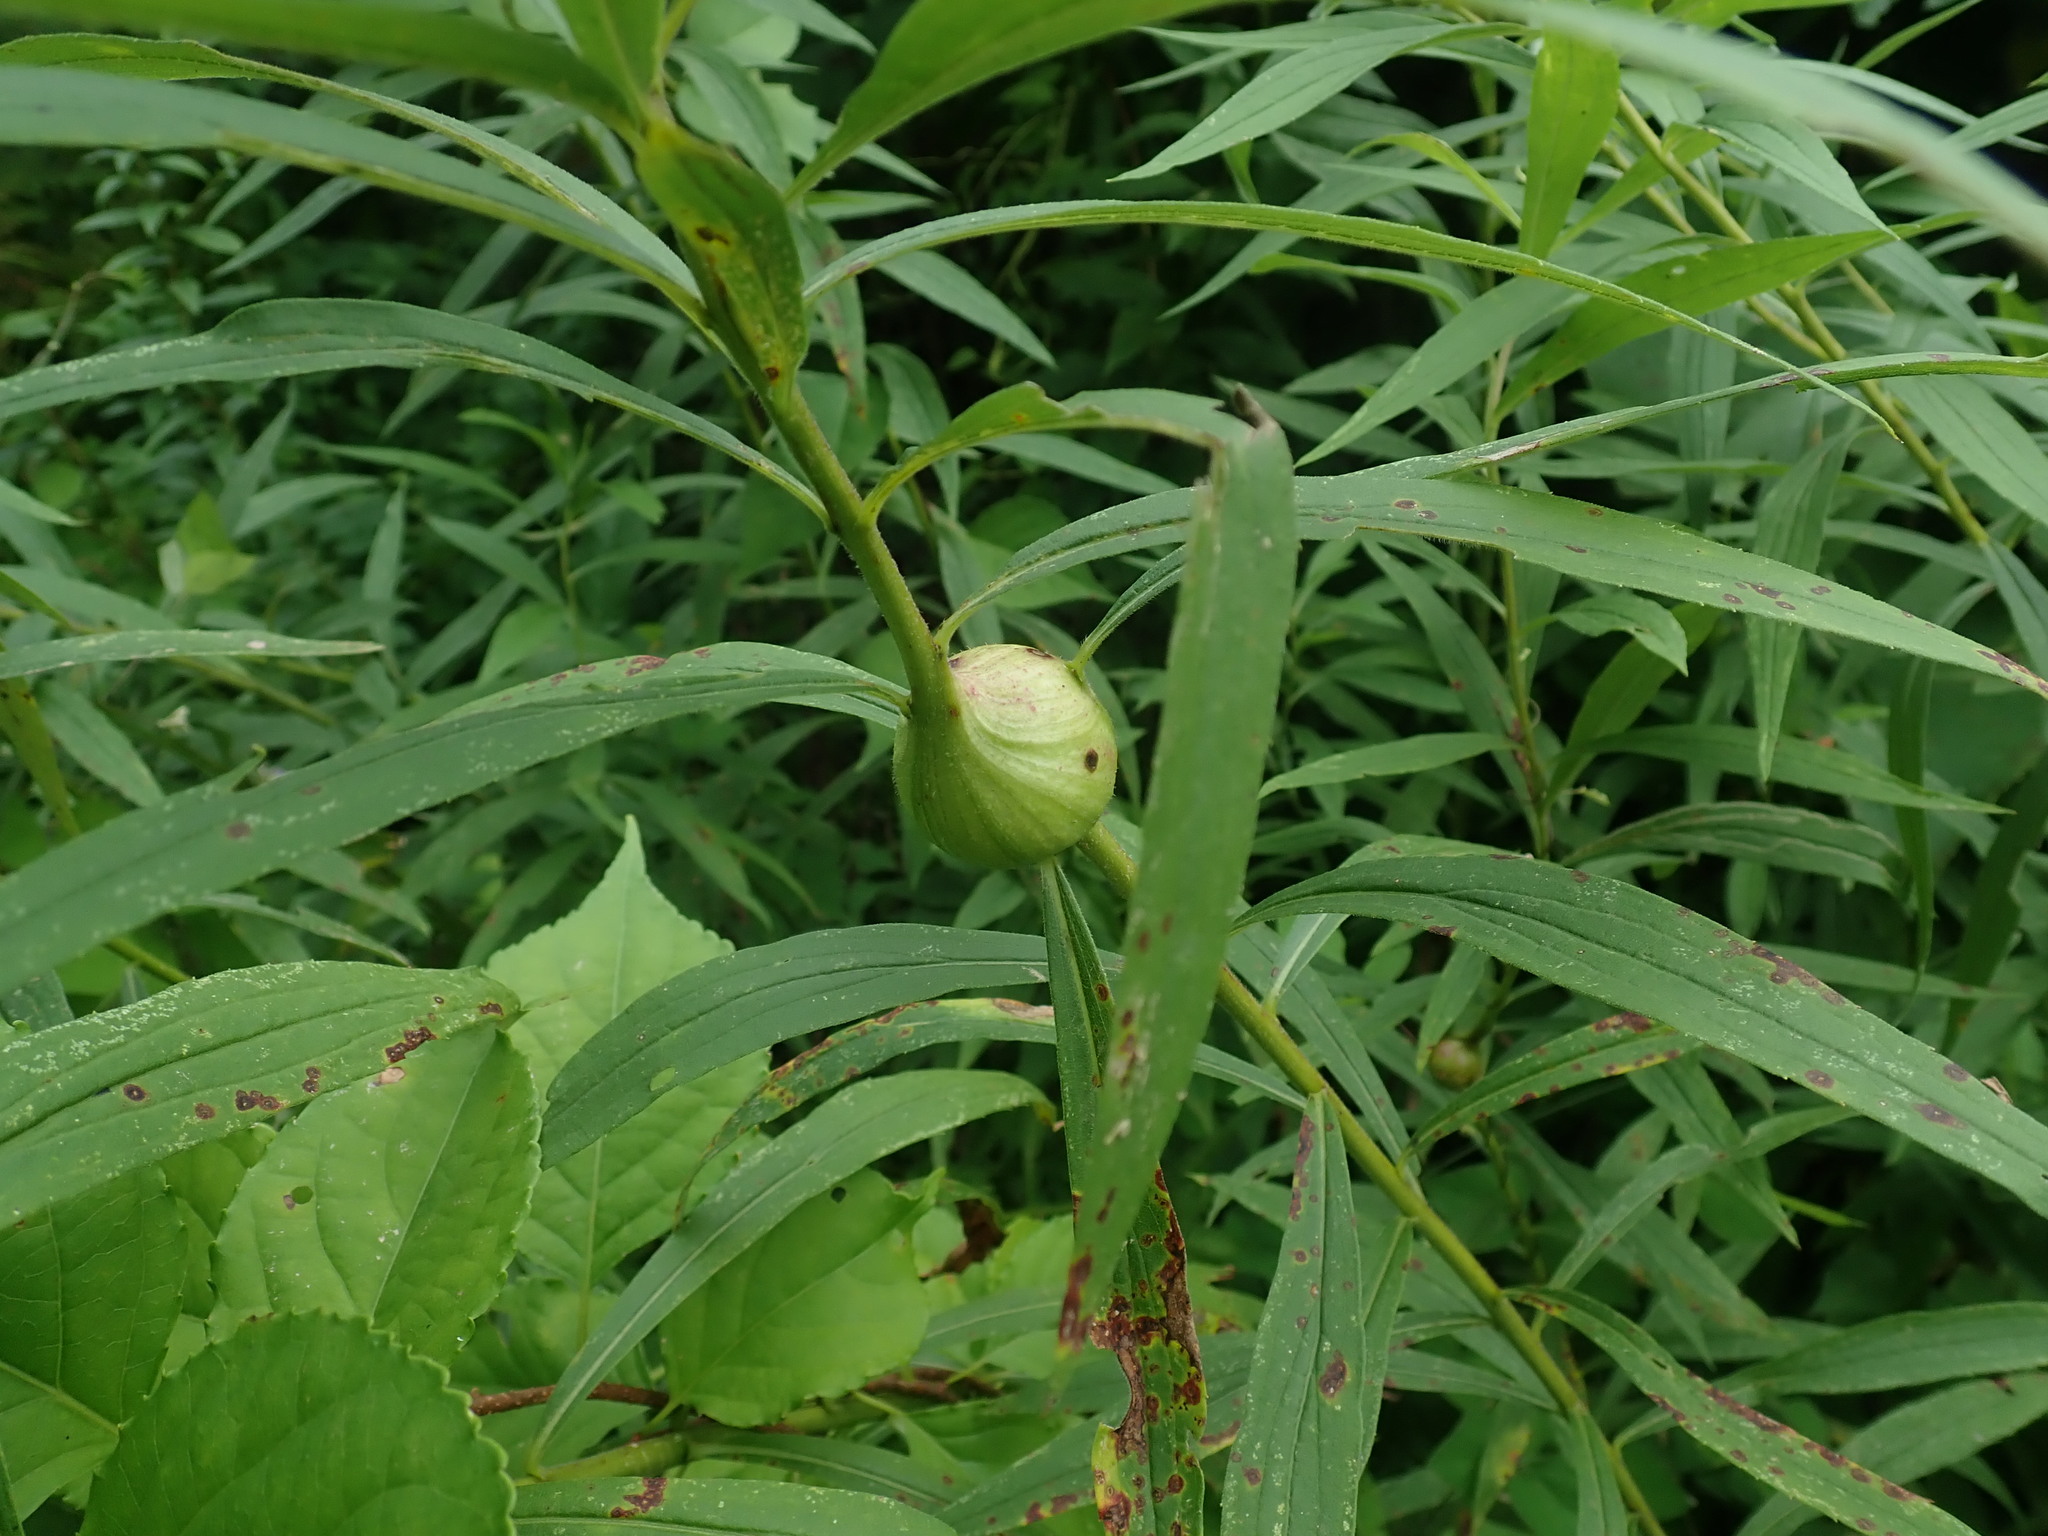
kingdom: Animalia
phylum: Arthropoda
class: Insecta
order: Diptera
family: Tephritidae
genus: Eurosta
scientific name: Eurosta solidaginis
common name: Goldenrod gall fly
